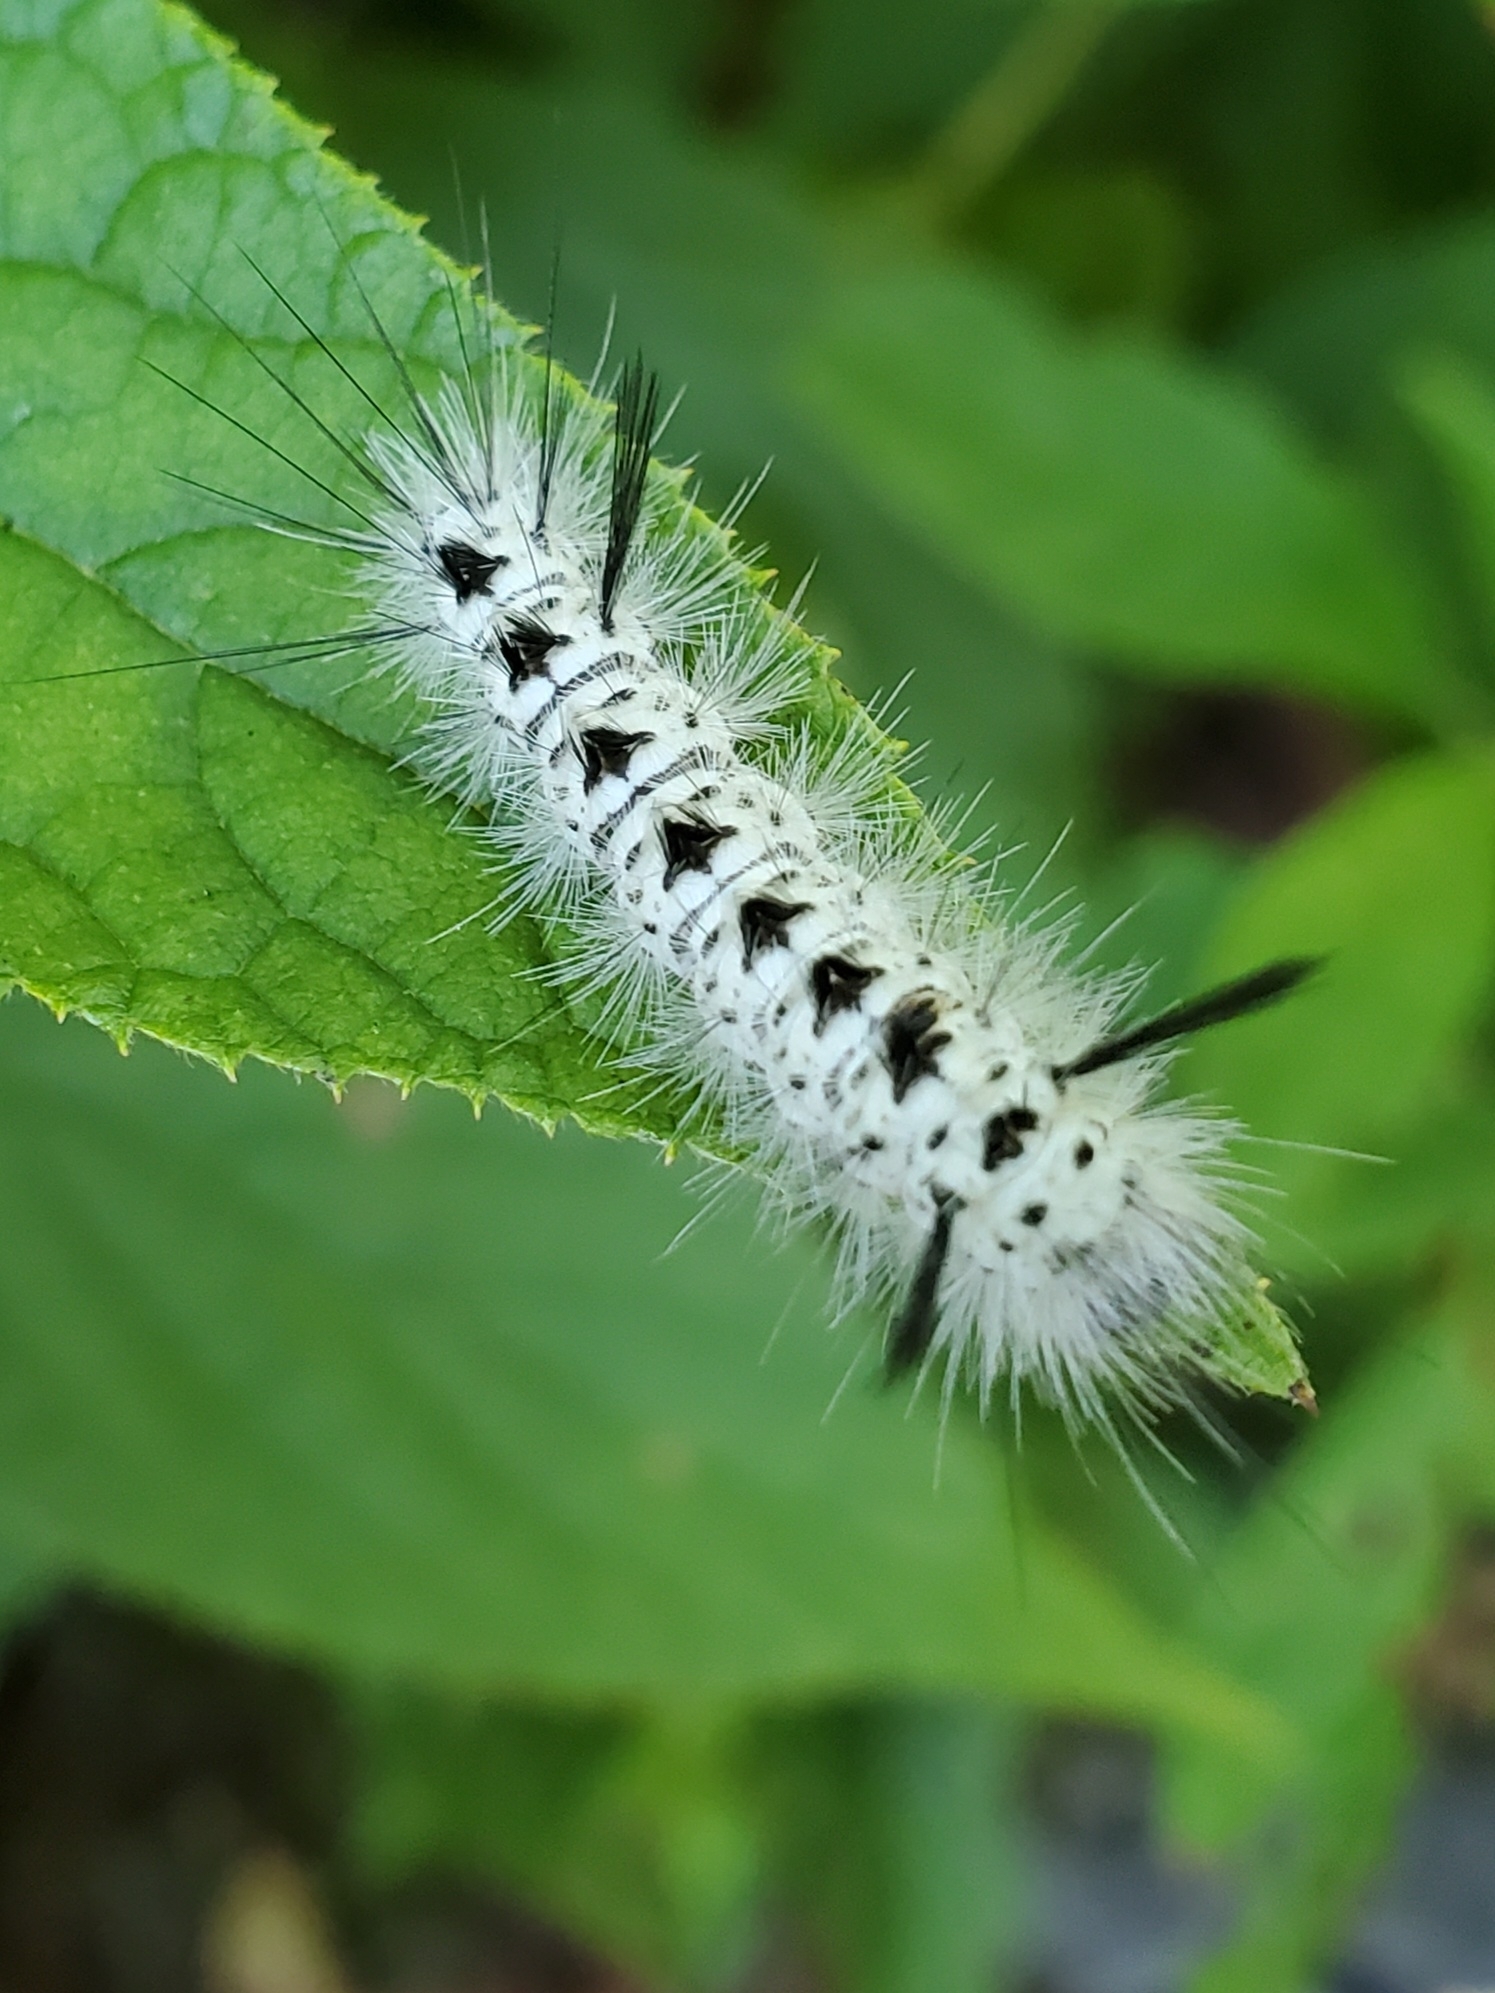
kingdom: Animalia
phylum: Arthropoda
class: Insecta
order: Lepidoptera
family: Erebidae
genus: Lophocampa
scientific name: Lophocampa caryae
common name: Hickory tussock moth
